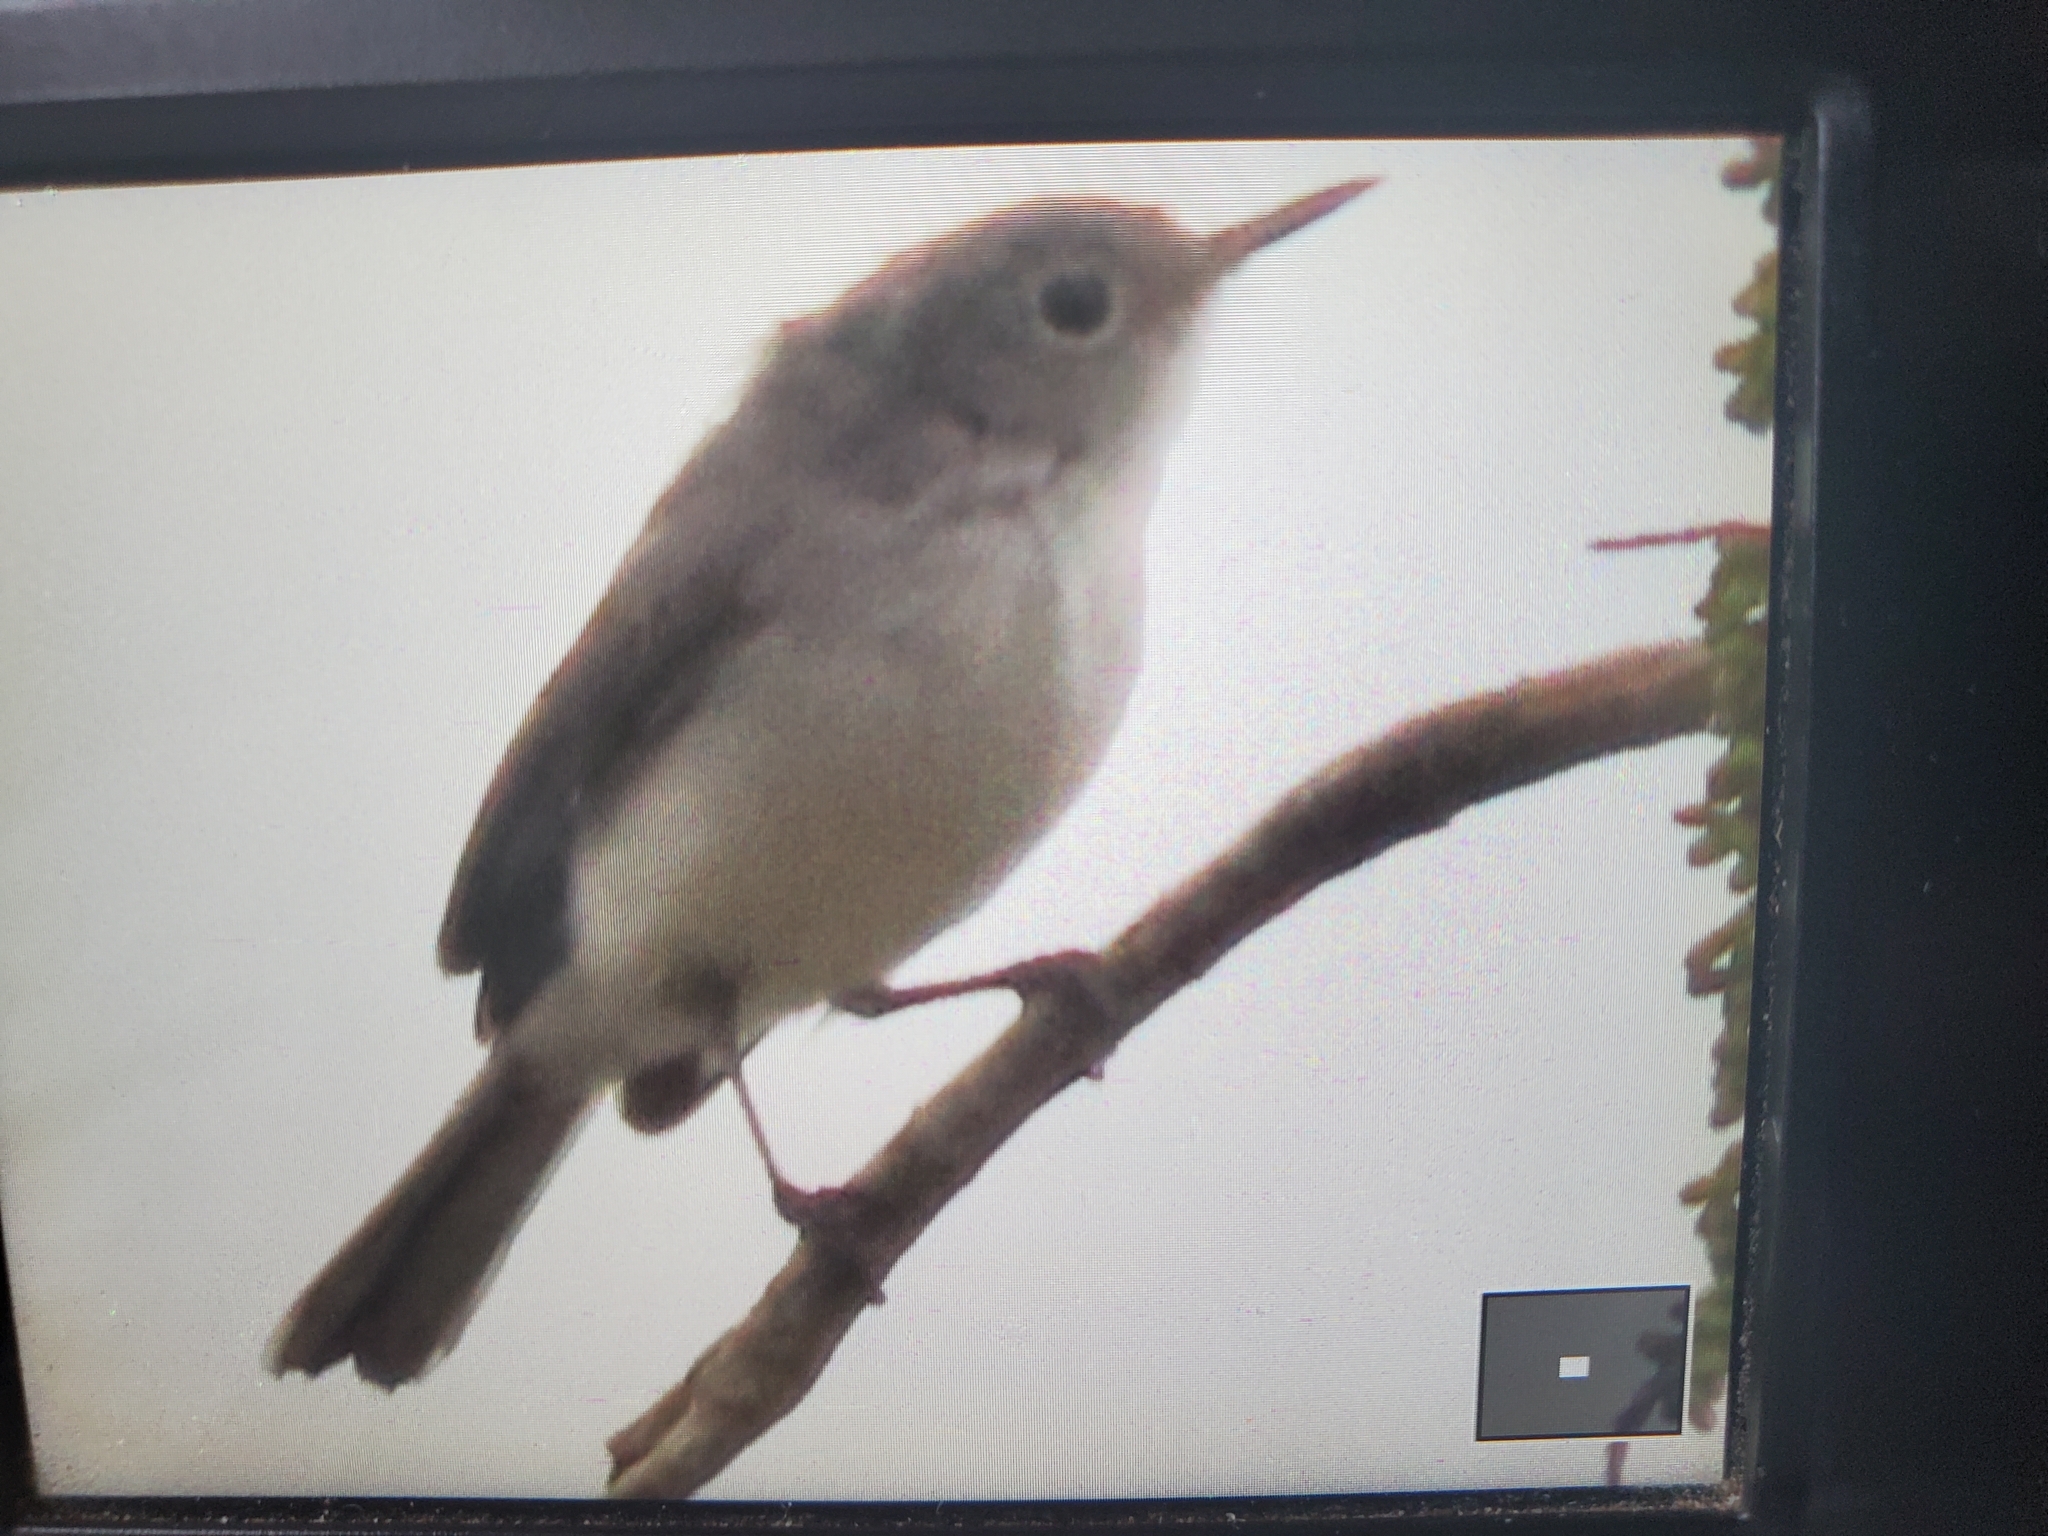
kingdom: Animalia
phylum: Chordata
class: Aves
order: Passeriformes
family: Polioptilidae
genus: Polioptila
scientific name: Polioptila caerulea
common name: Blue-gray gnatcatcher
